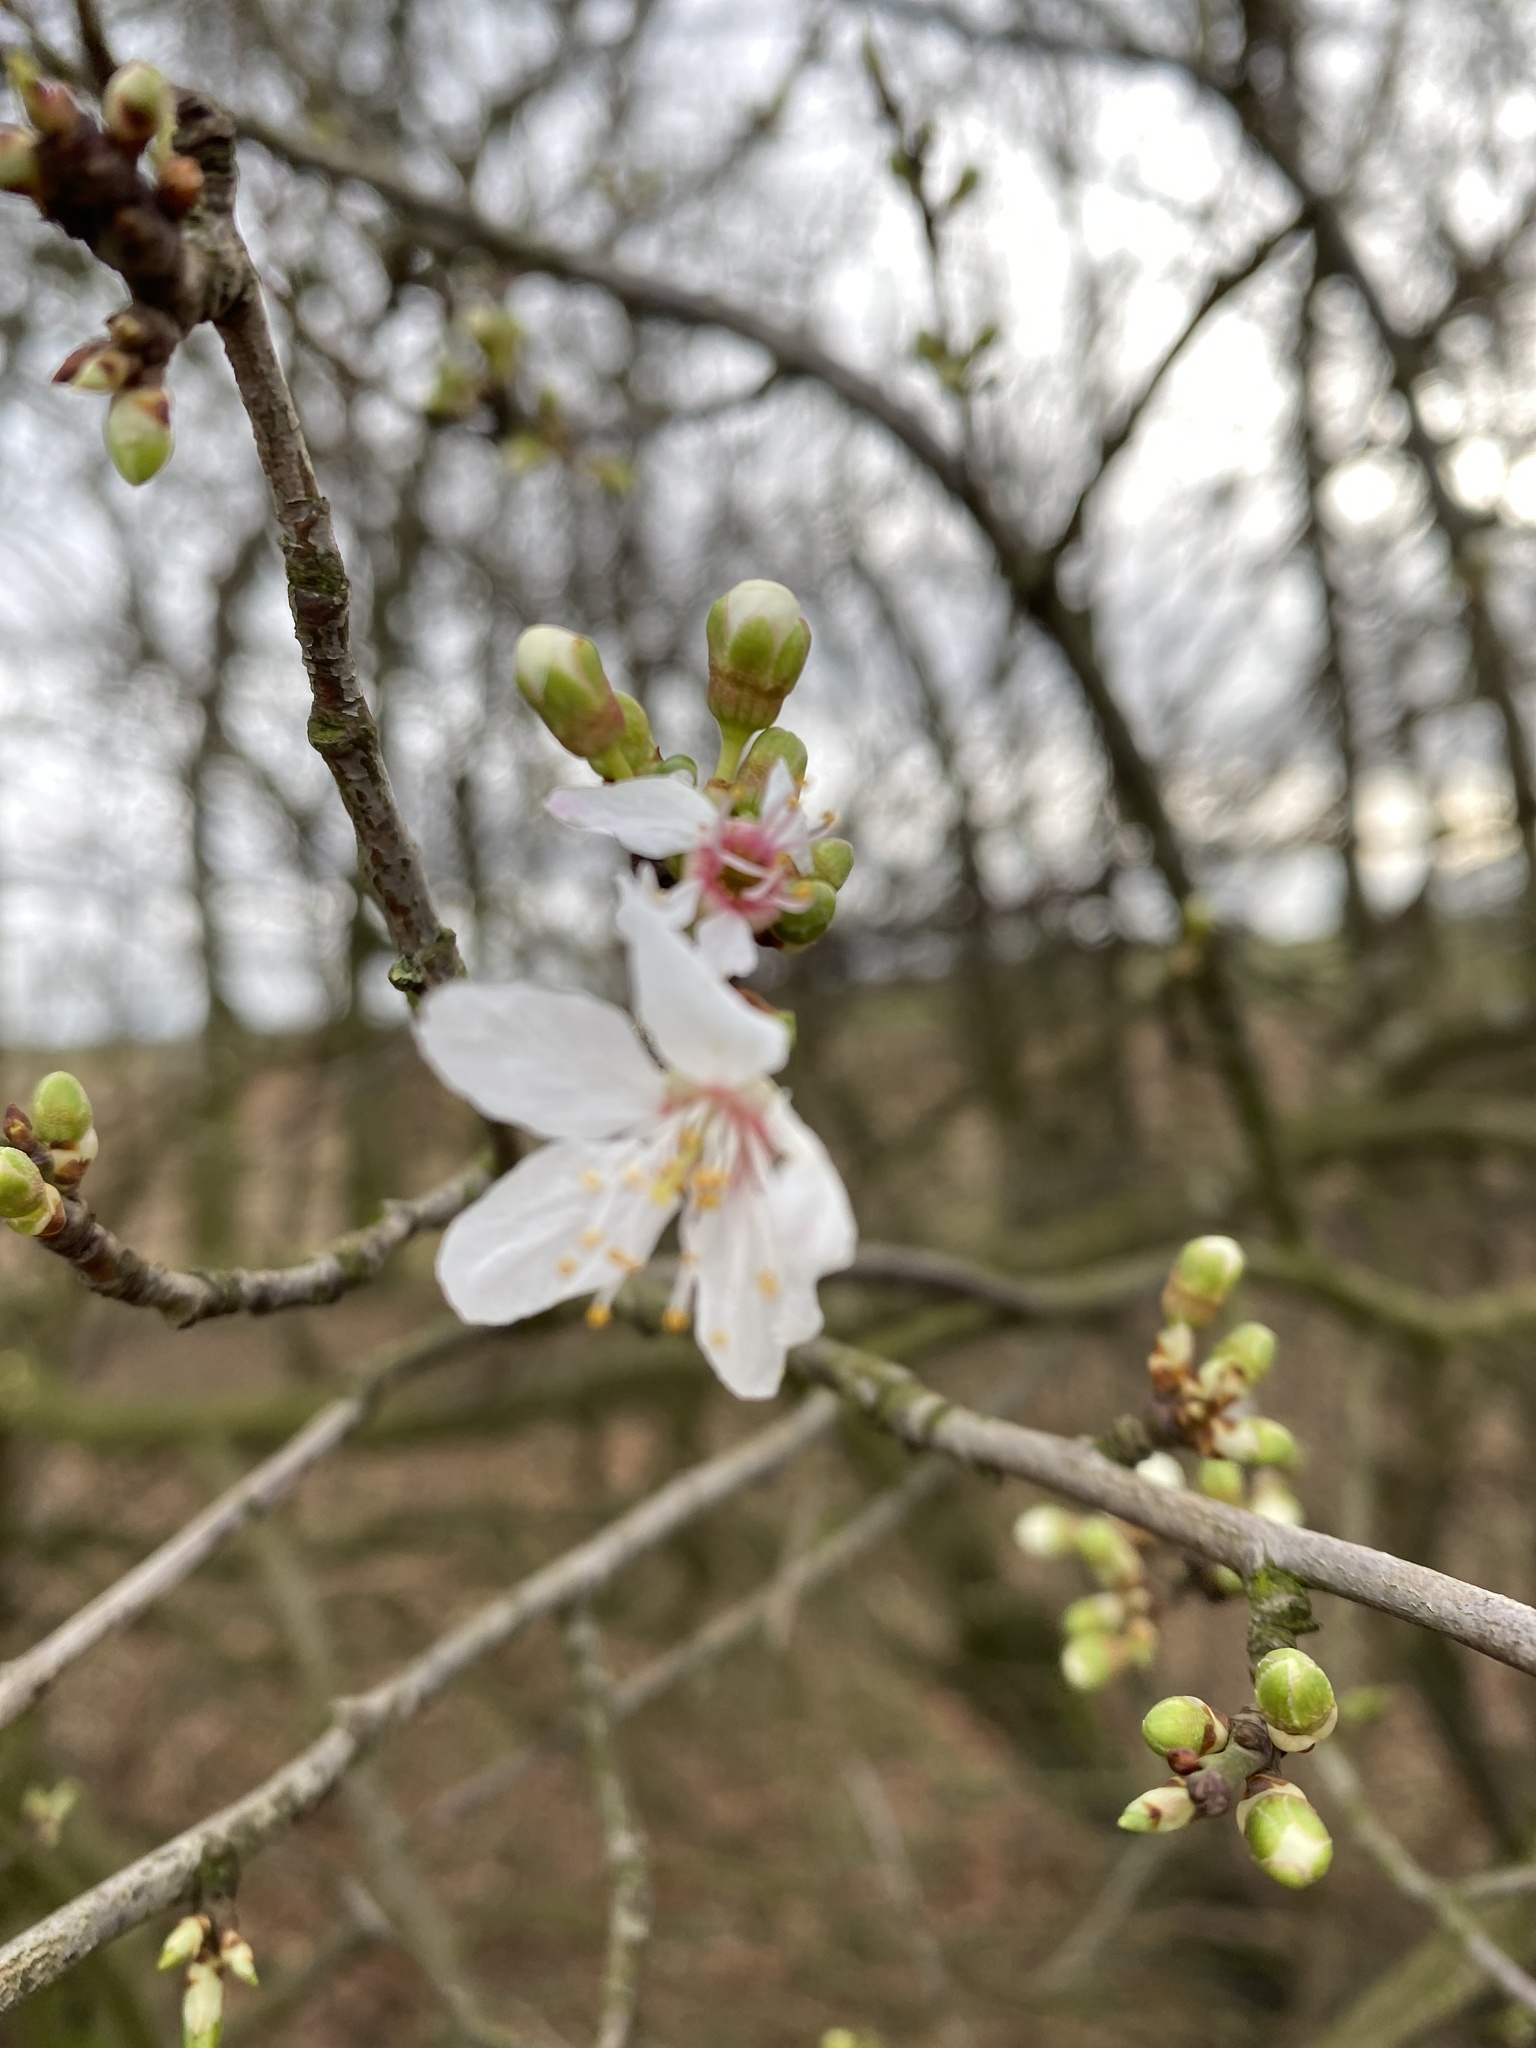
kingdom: Plantae
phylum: Tracheophyta
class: Magnoliopsida
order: Rosales
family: Rosaceae
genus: Prunus
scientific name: Prunus cerasifera
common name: Cherry plum
